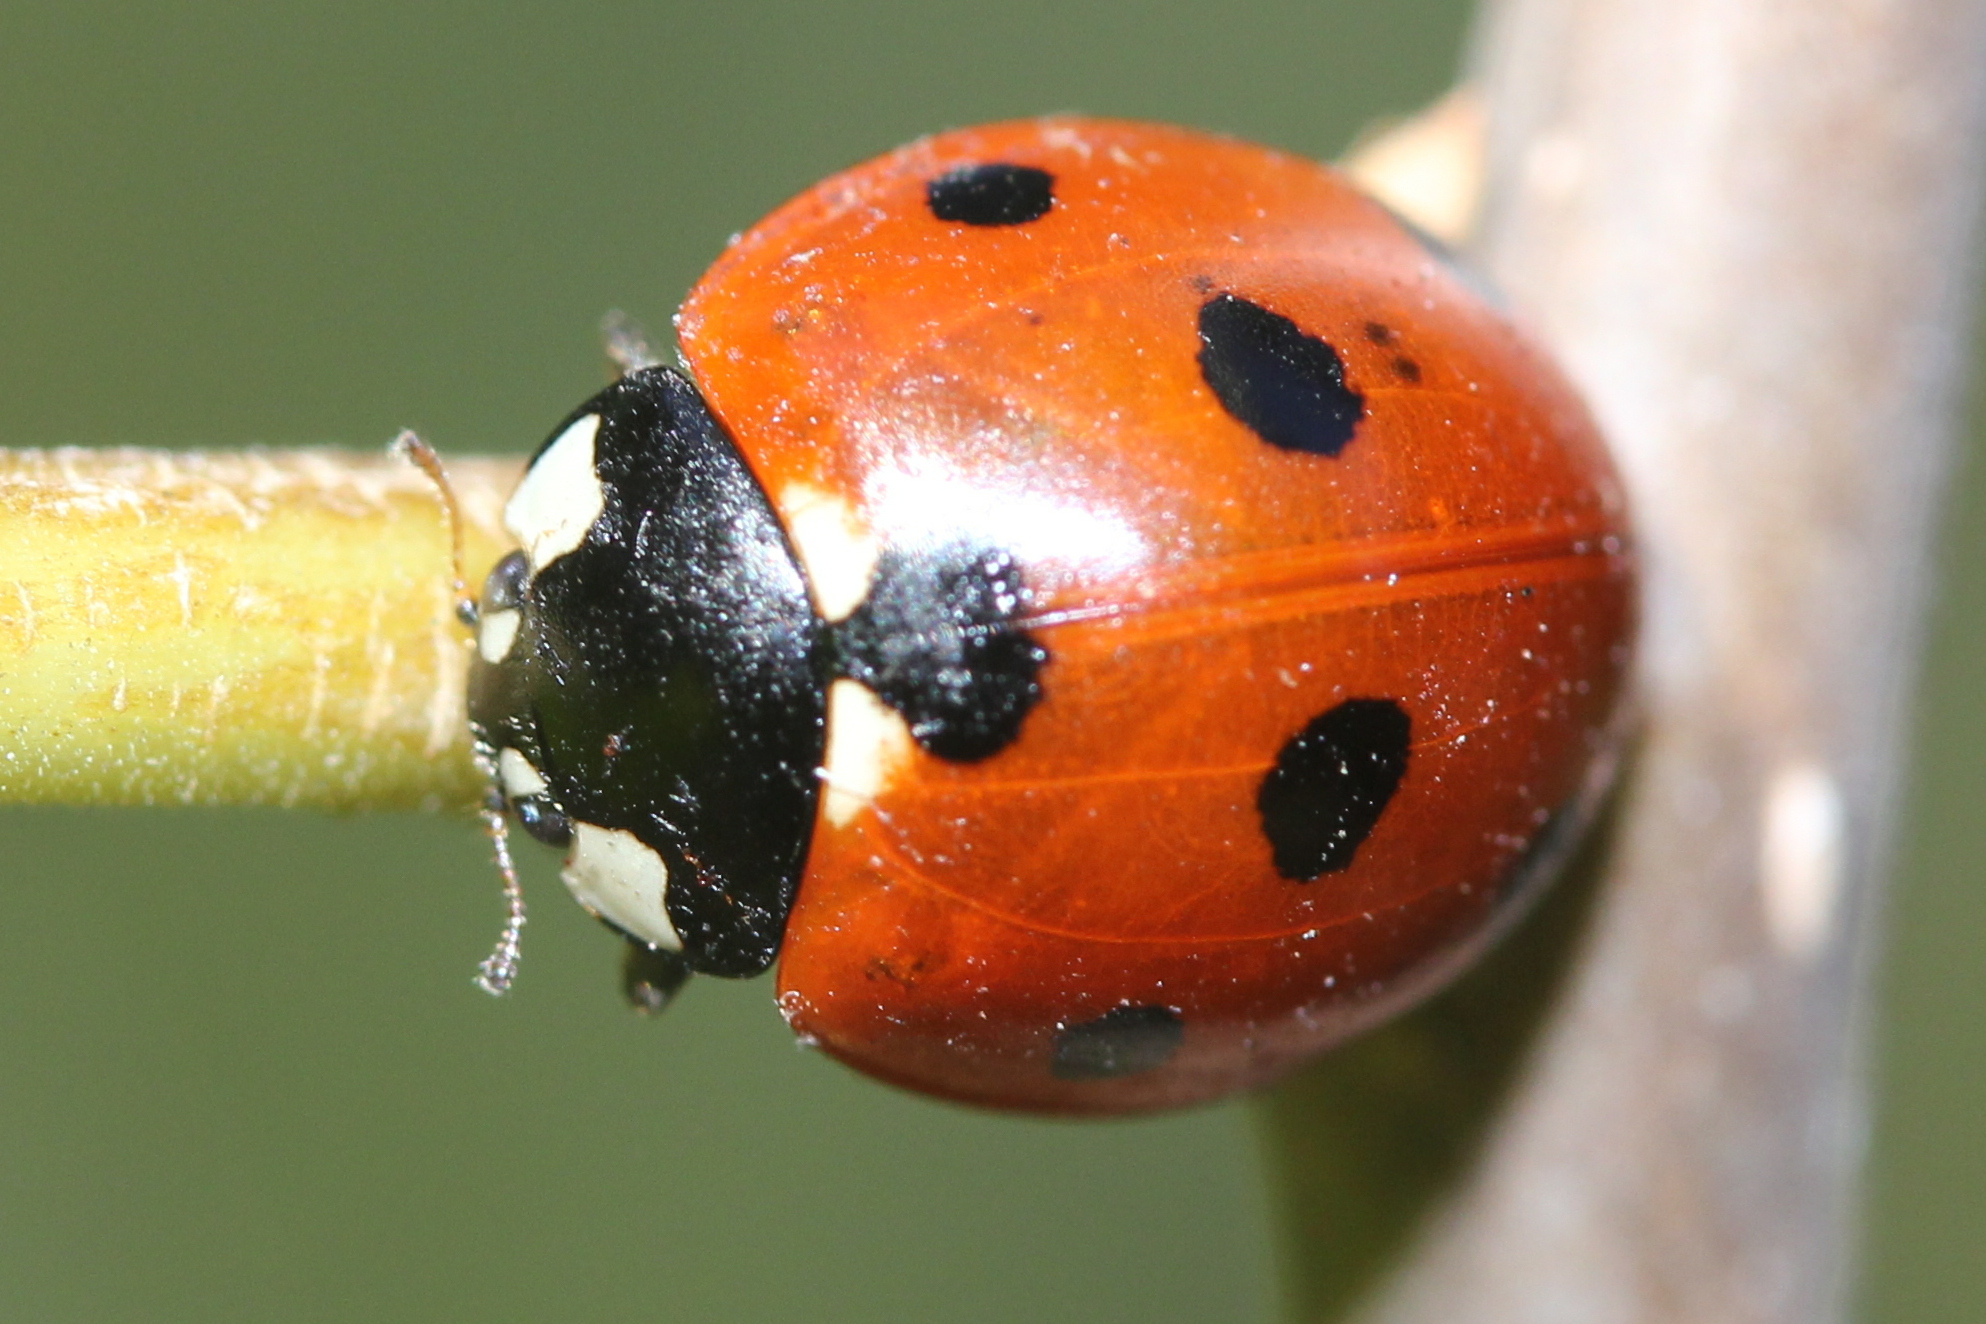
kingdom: Animalia
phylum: Arthropoda
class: Insecta
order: Coleoptera
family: Coccinellidae
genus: Coccinella
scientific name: Coccinella septempunctata
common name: Sevenspotted lady beetle
